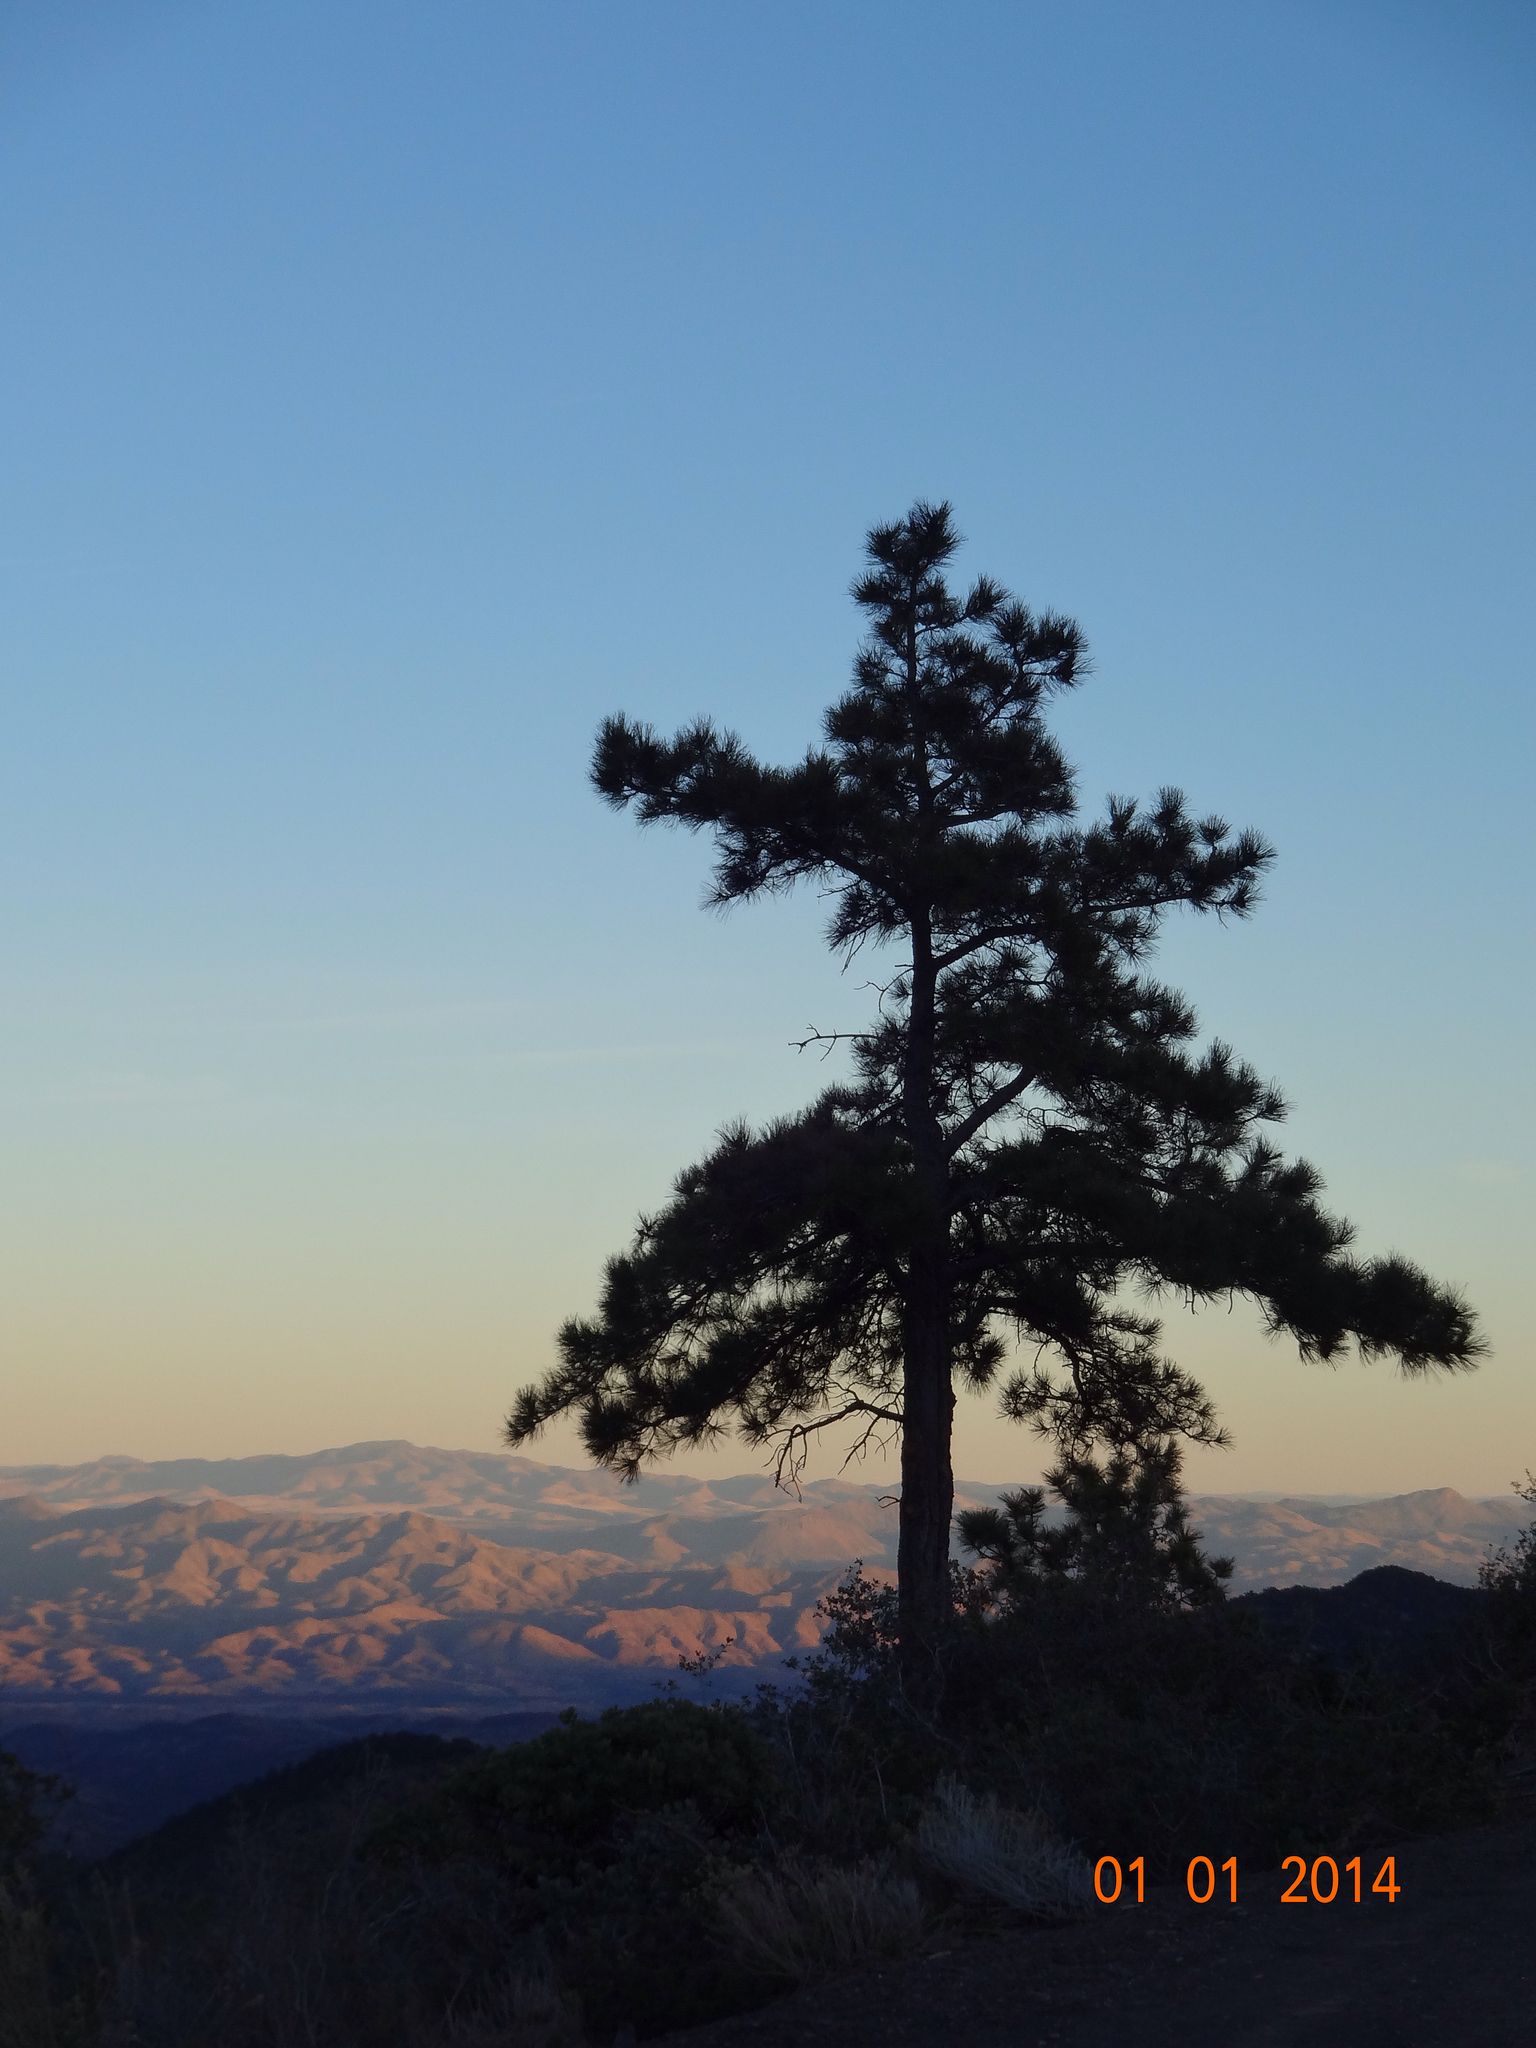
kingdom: Plantae
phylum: Tracheophyta
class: Pinopsida
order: Pinales
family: Pinaceae
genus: Pinus
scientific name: Pinus ponderosa
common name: Western yellow-pine
